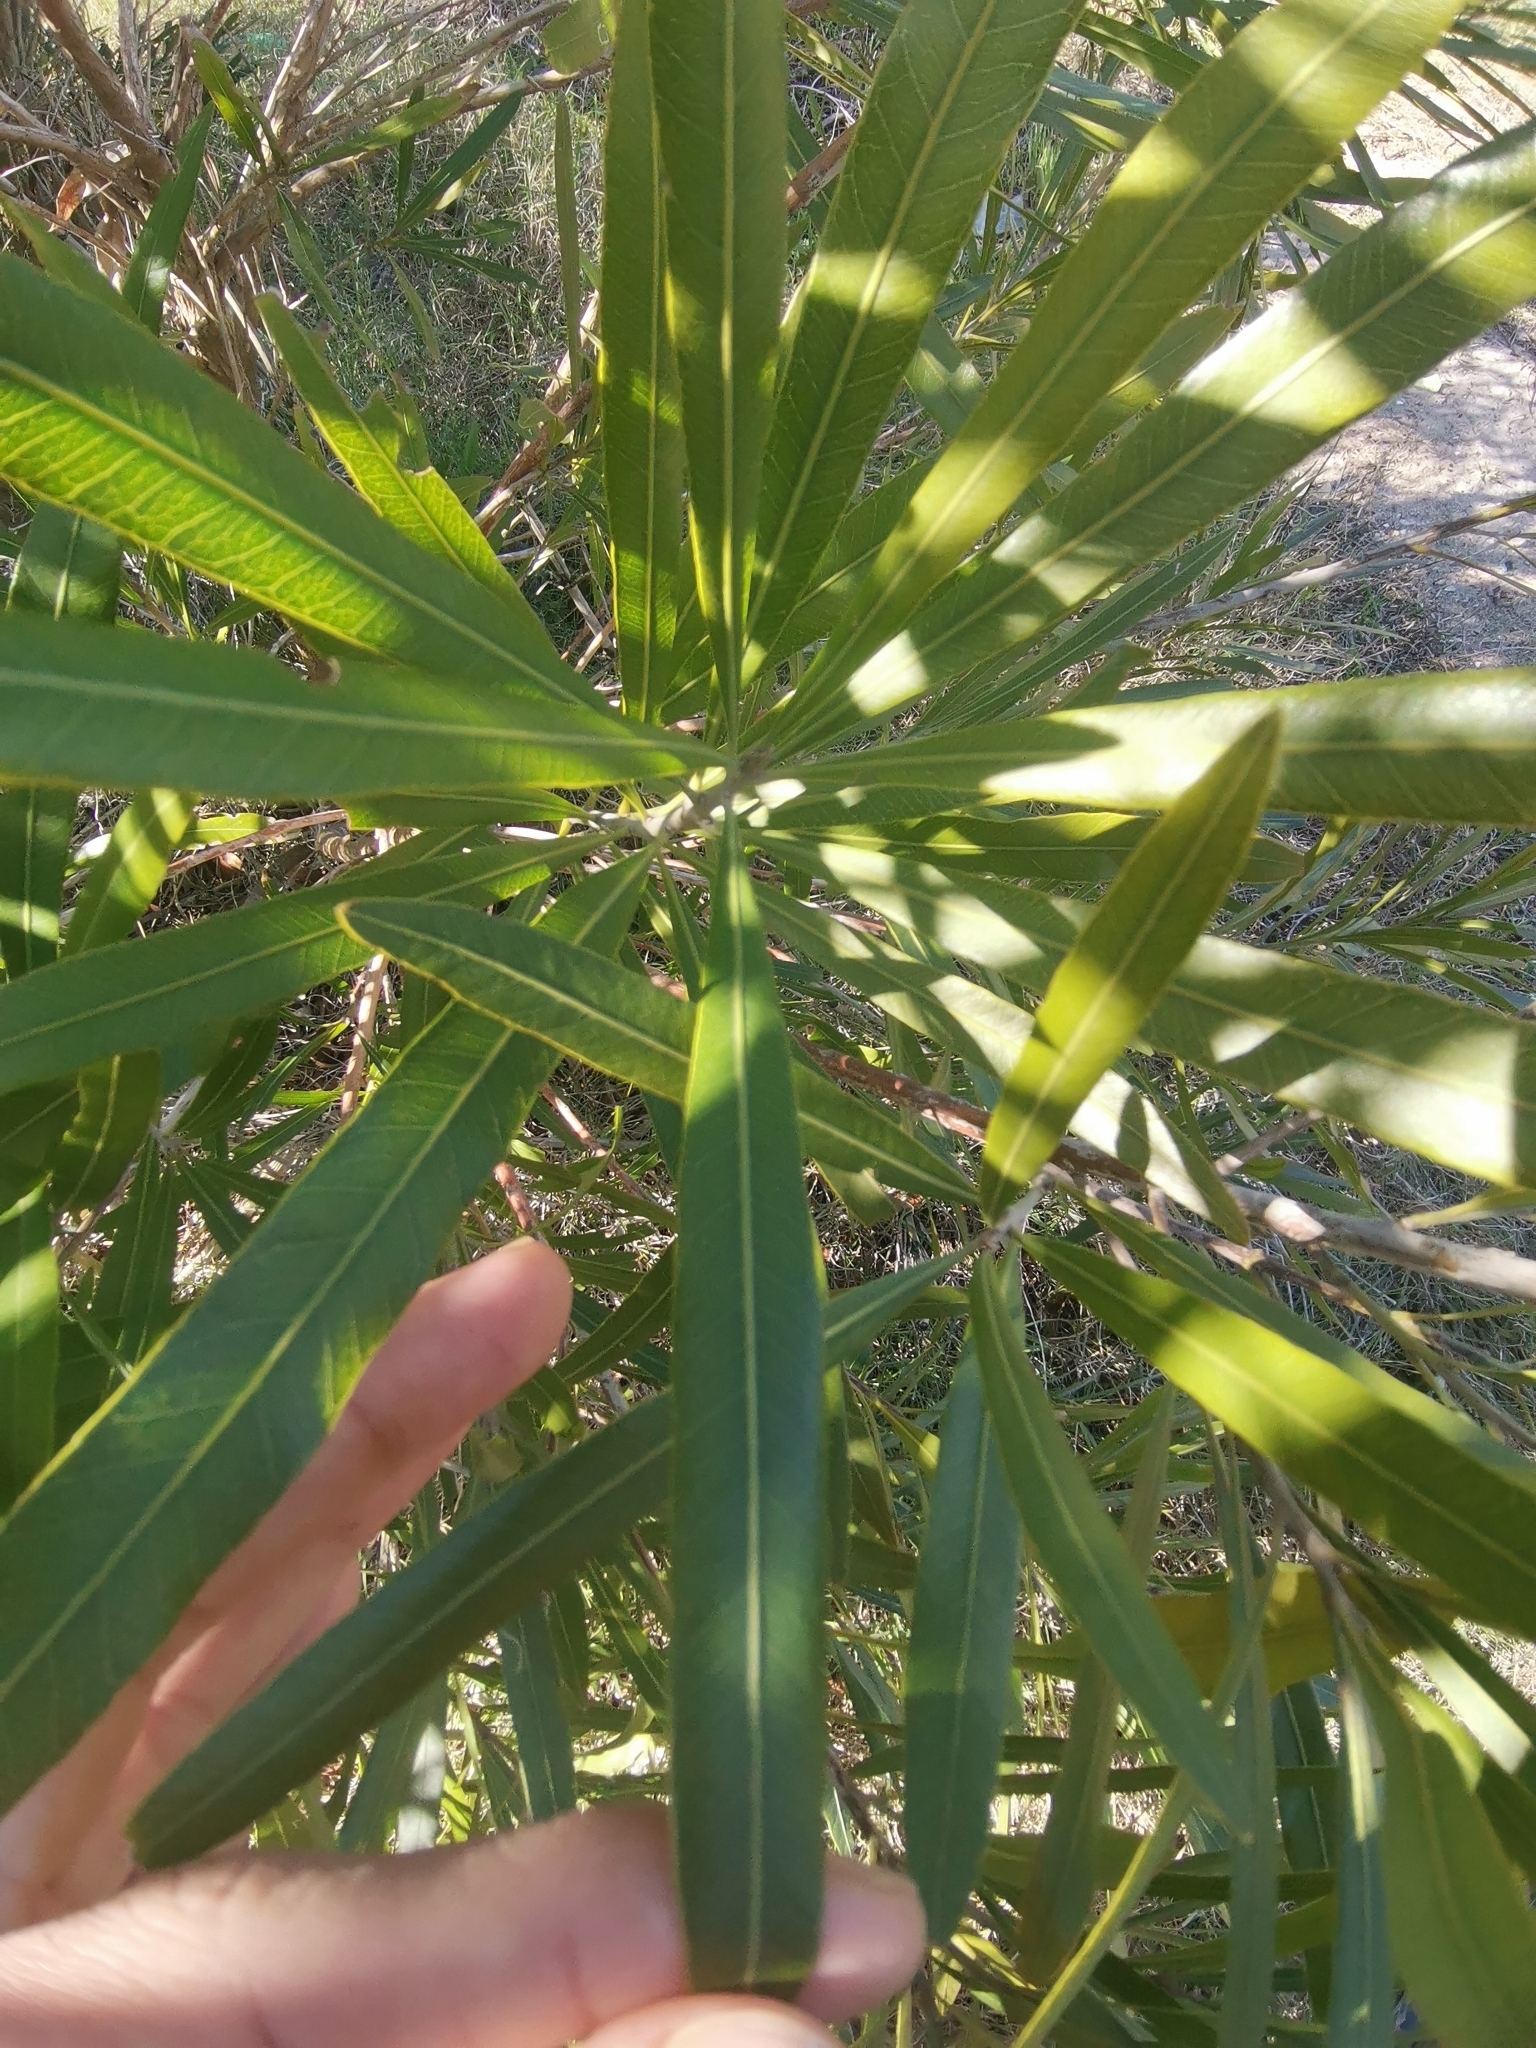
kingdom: Plantae
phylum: Tracheophyta
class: Magnoliopsida
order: Ericales
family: Sapotaceae
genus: Labatia
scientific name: Labatia salicifolia
